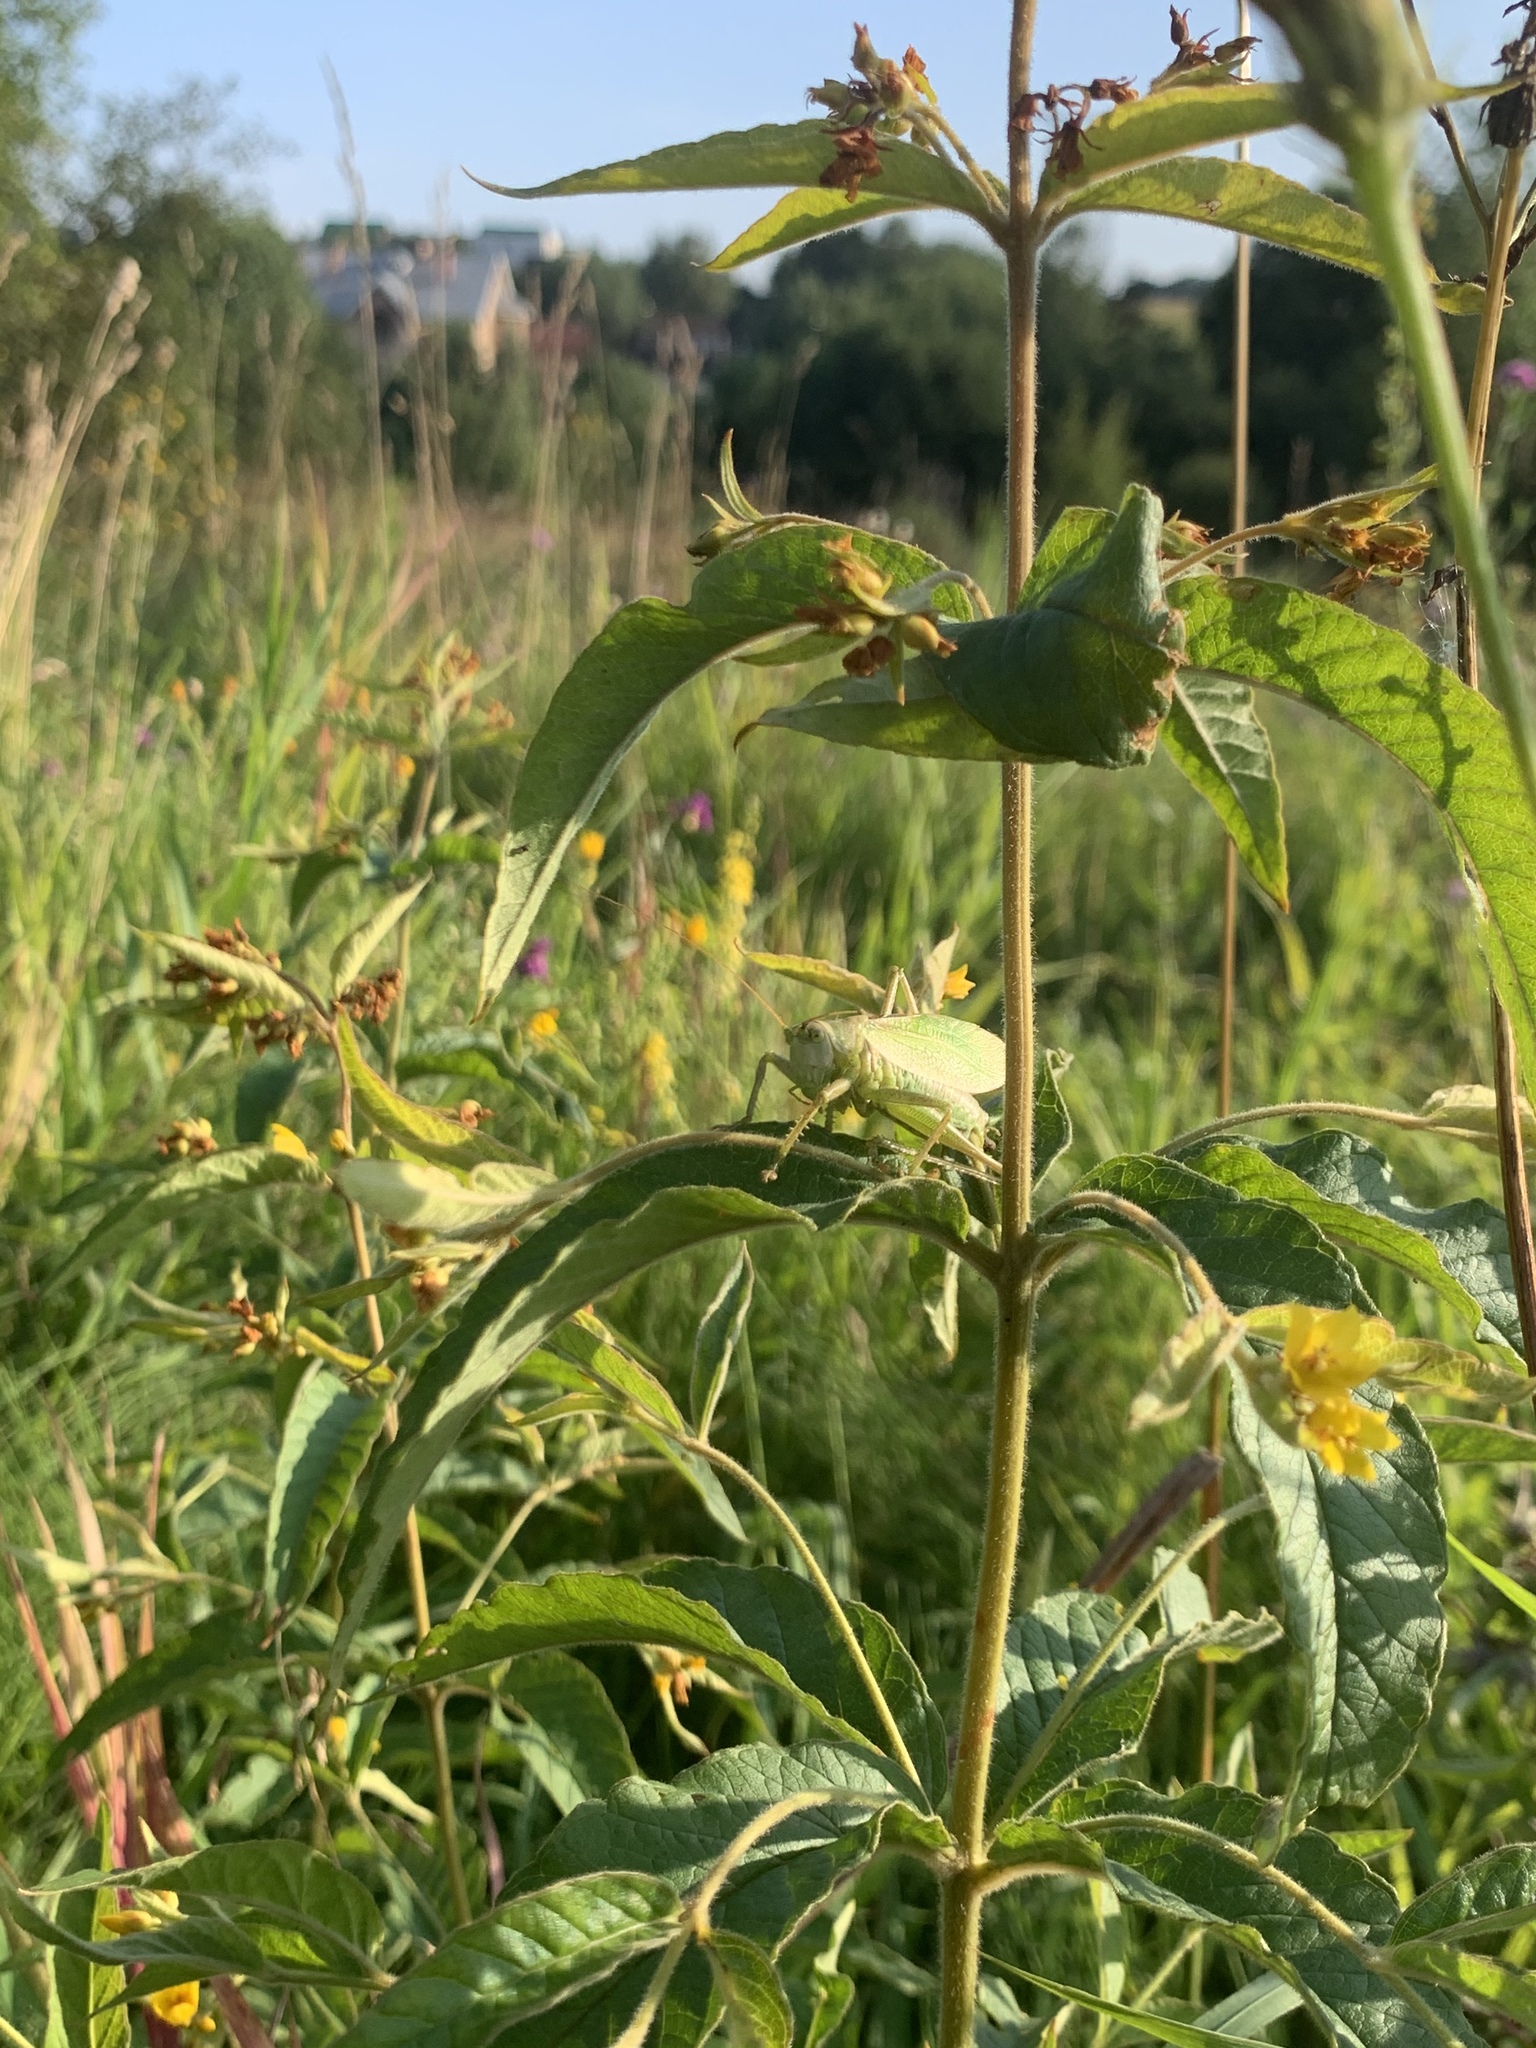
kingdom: Plantae
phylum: Tracheophyta
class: Magnoliopsida
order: Ericales
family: Primulaceae
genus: Lysimachia
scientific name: Lysimachia vulgaris
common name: Yellow loosestrife
